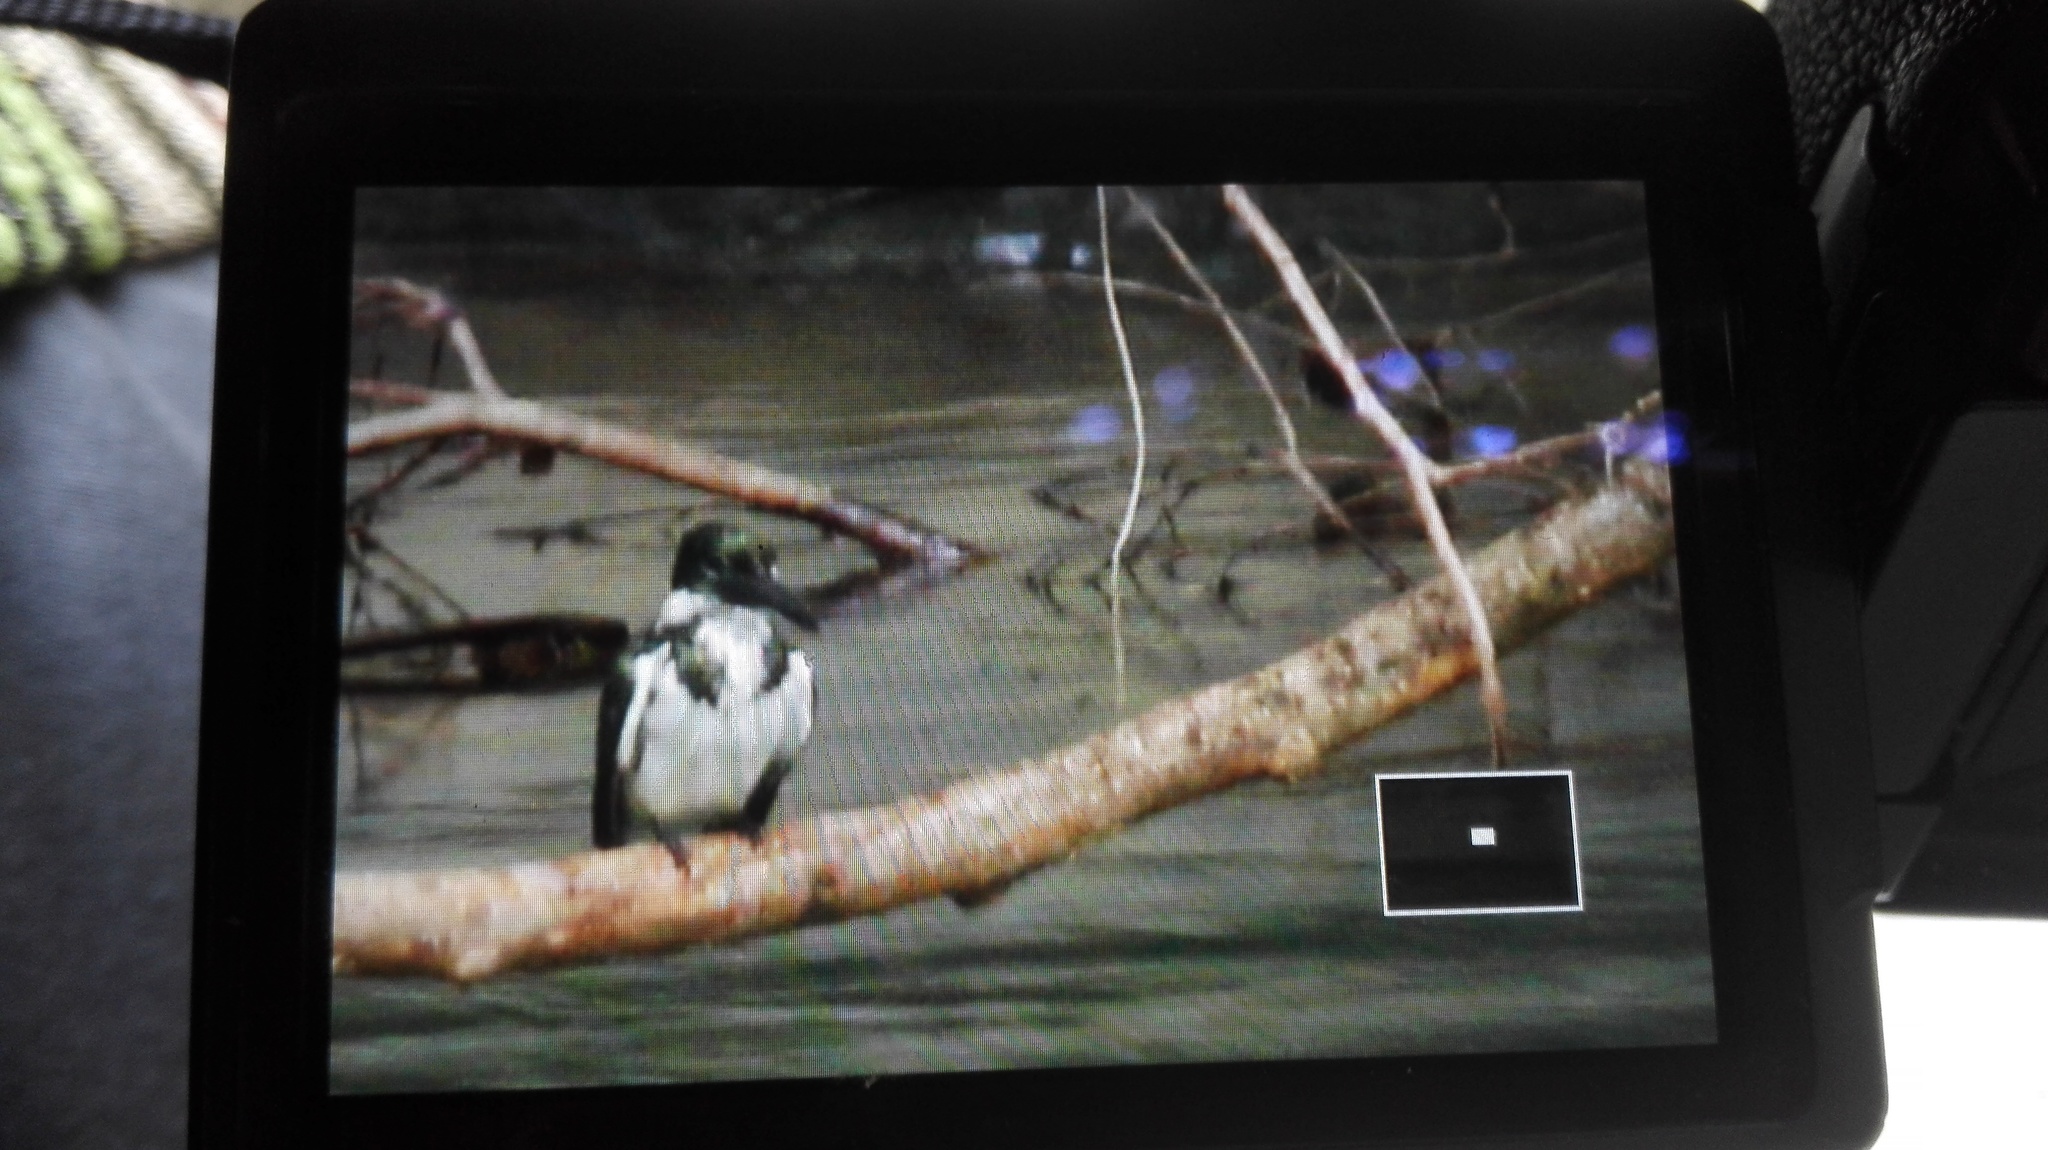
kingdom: Animalia
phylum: Chordata
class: Aves
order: Coraciiformes
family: Alcedinidae
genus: Chloroceryle
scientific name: Chloroceryle amazona
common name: Amazon kingfisher
